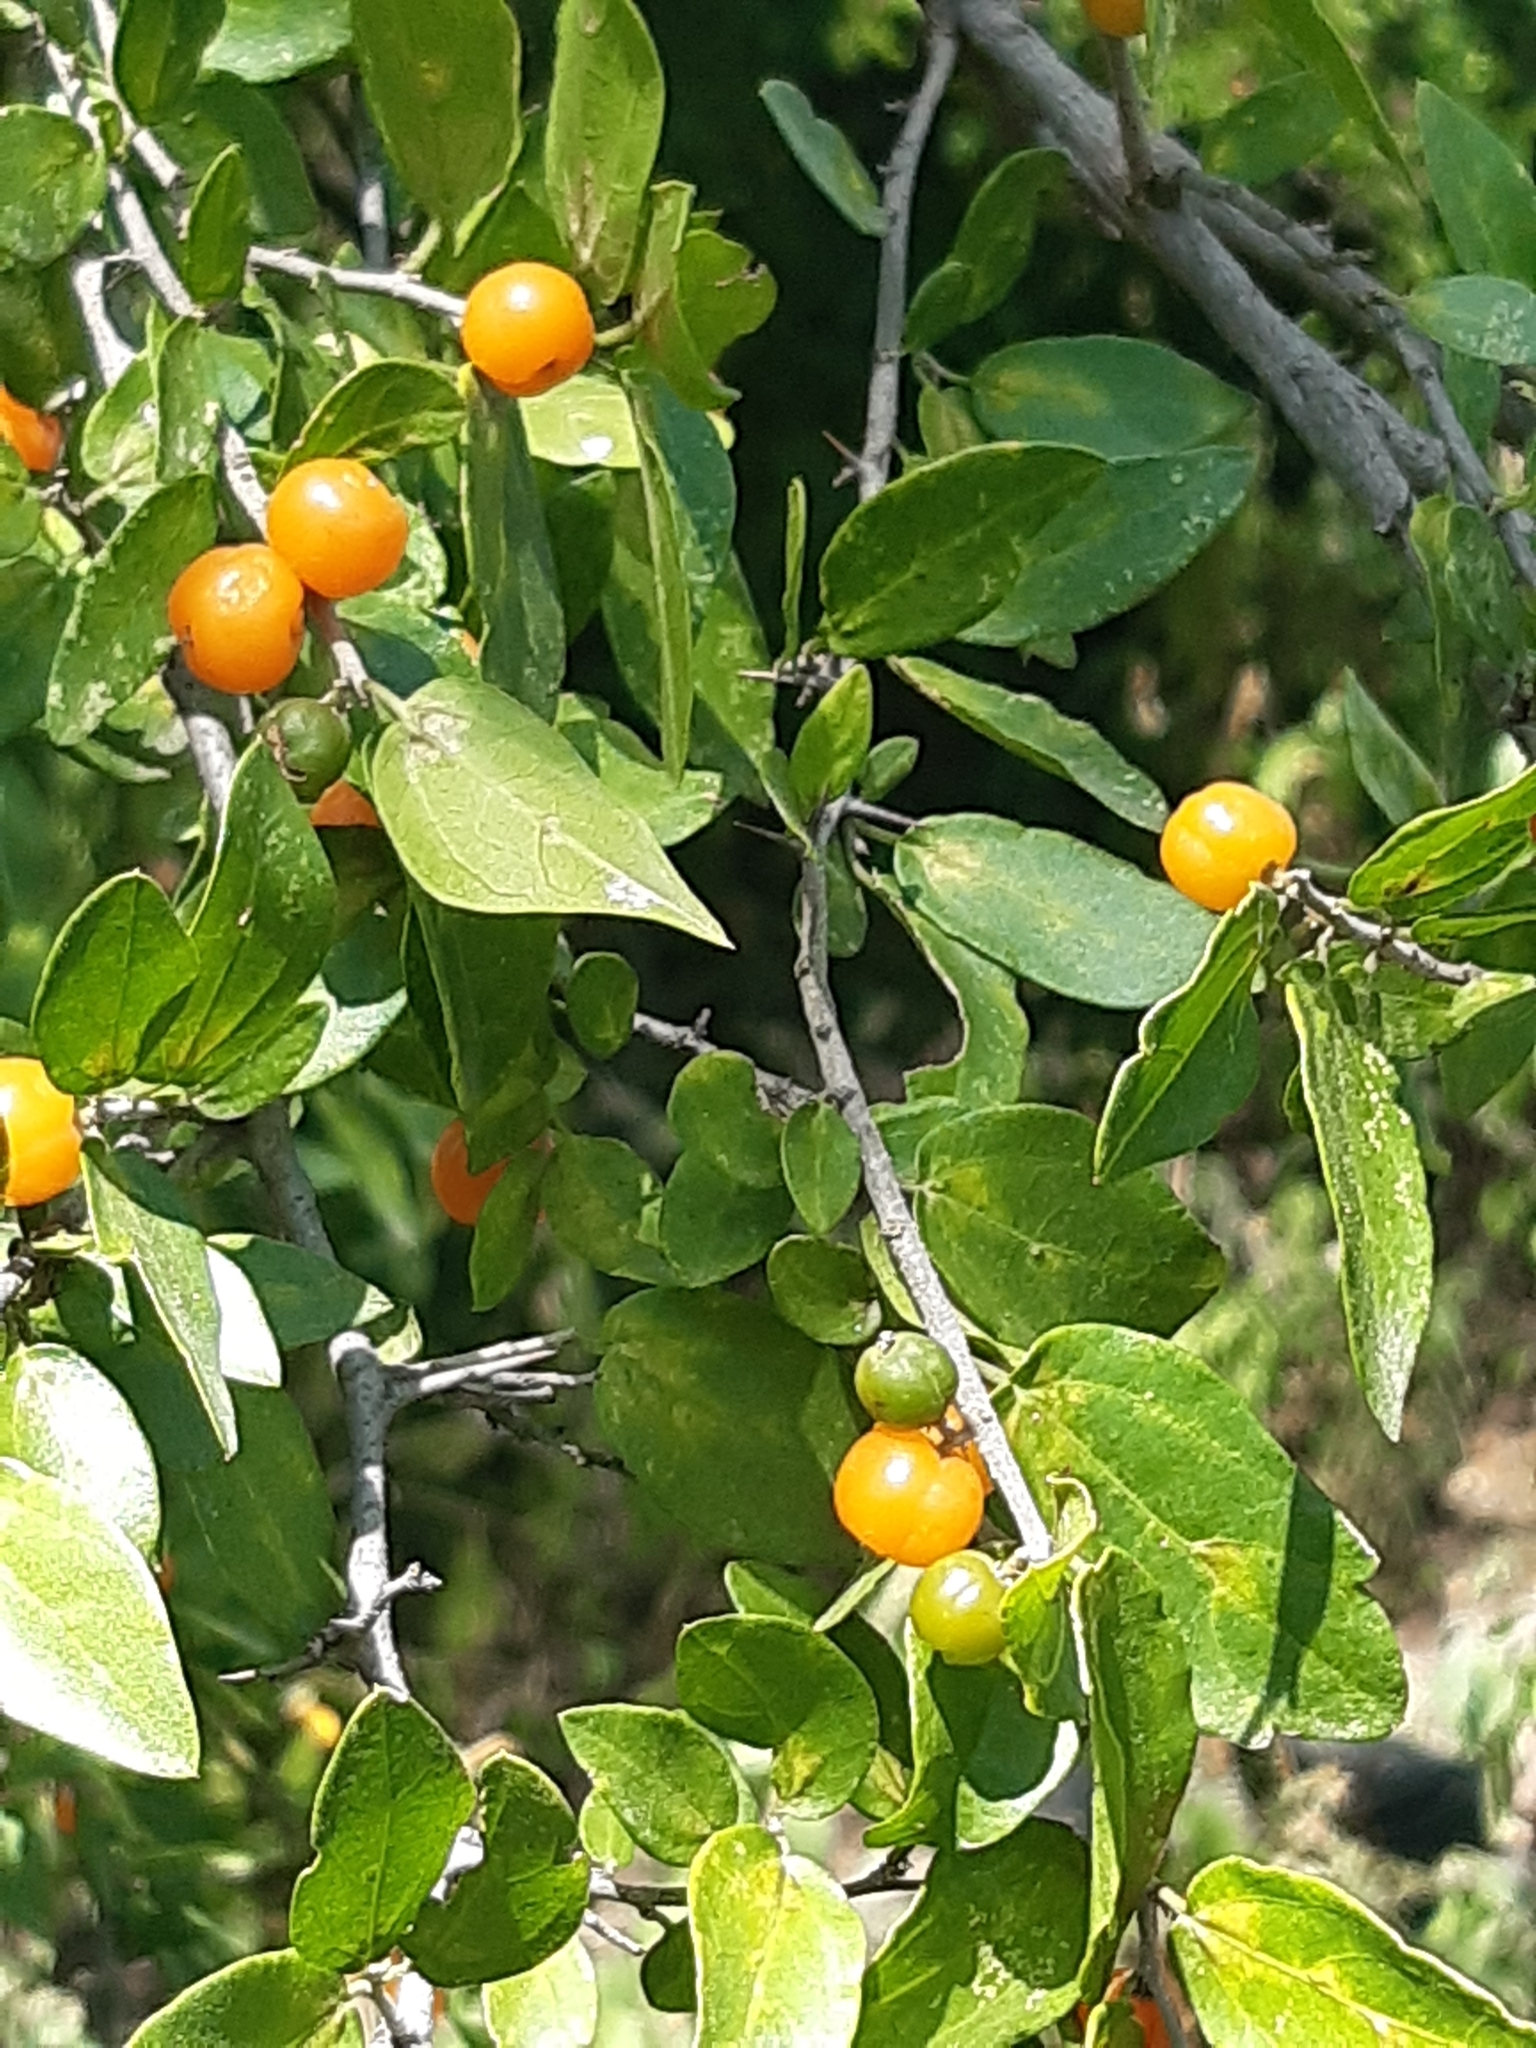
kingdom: Plantae
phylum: Tracheophyta
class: Magnoliopsida
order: Rosales
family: Cannabaceae
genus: Celtis
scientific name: Celtis pallida
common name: Desert hackberry
